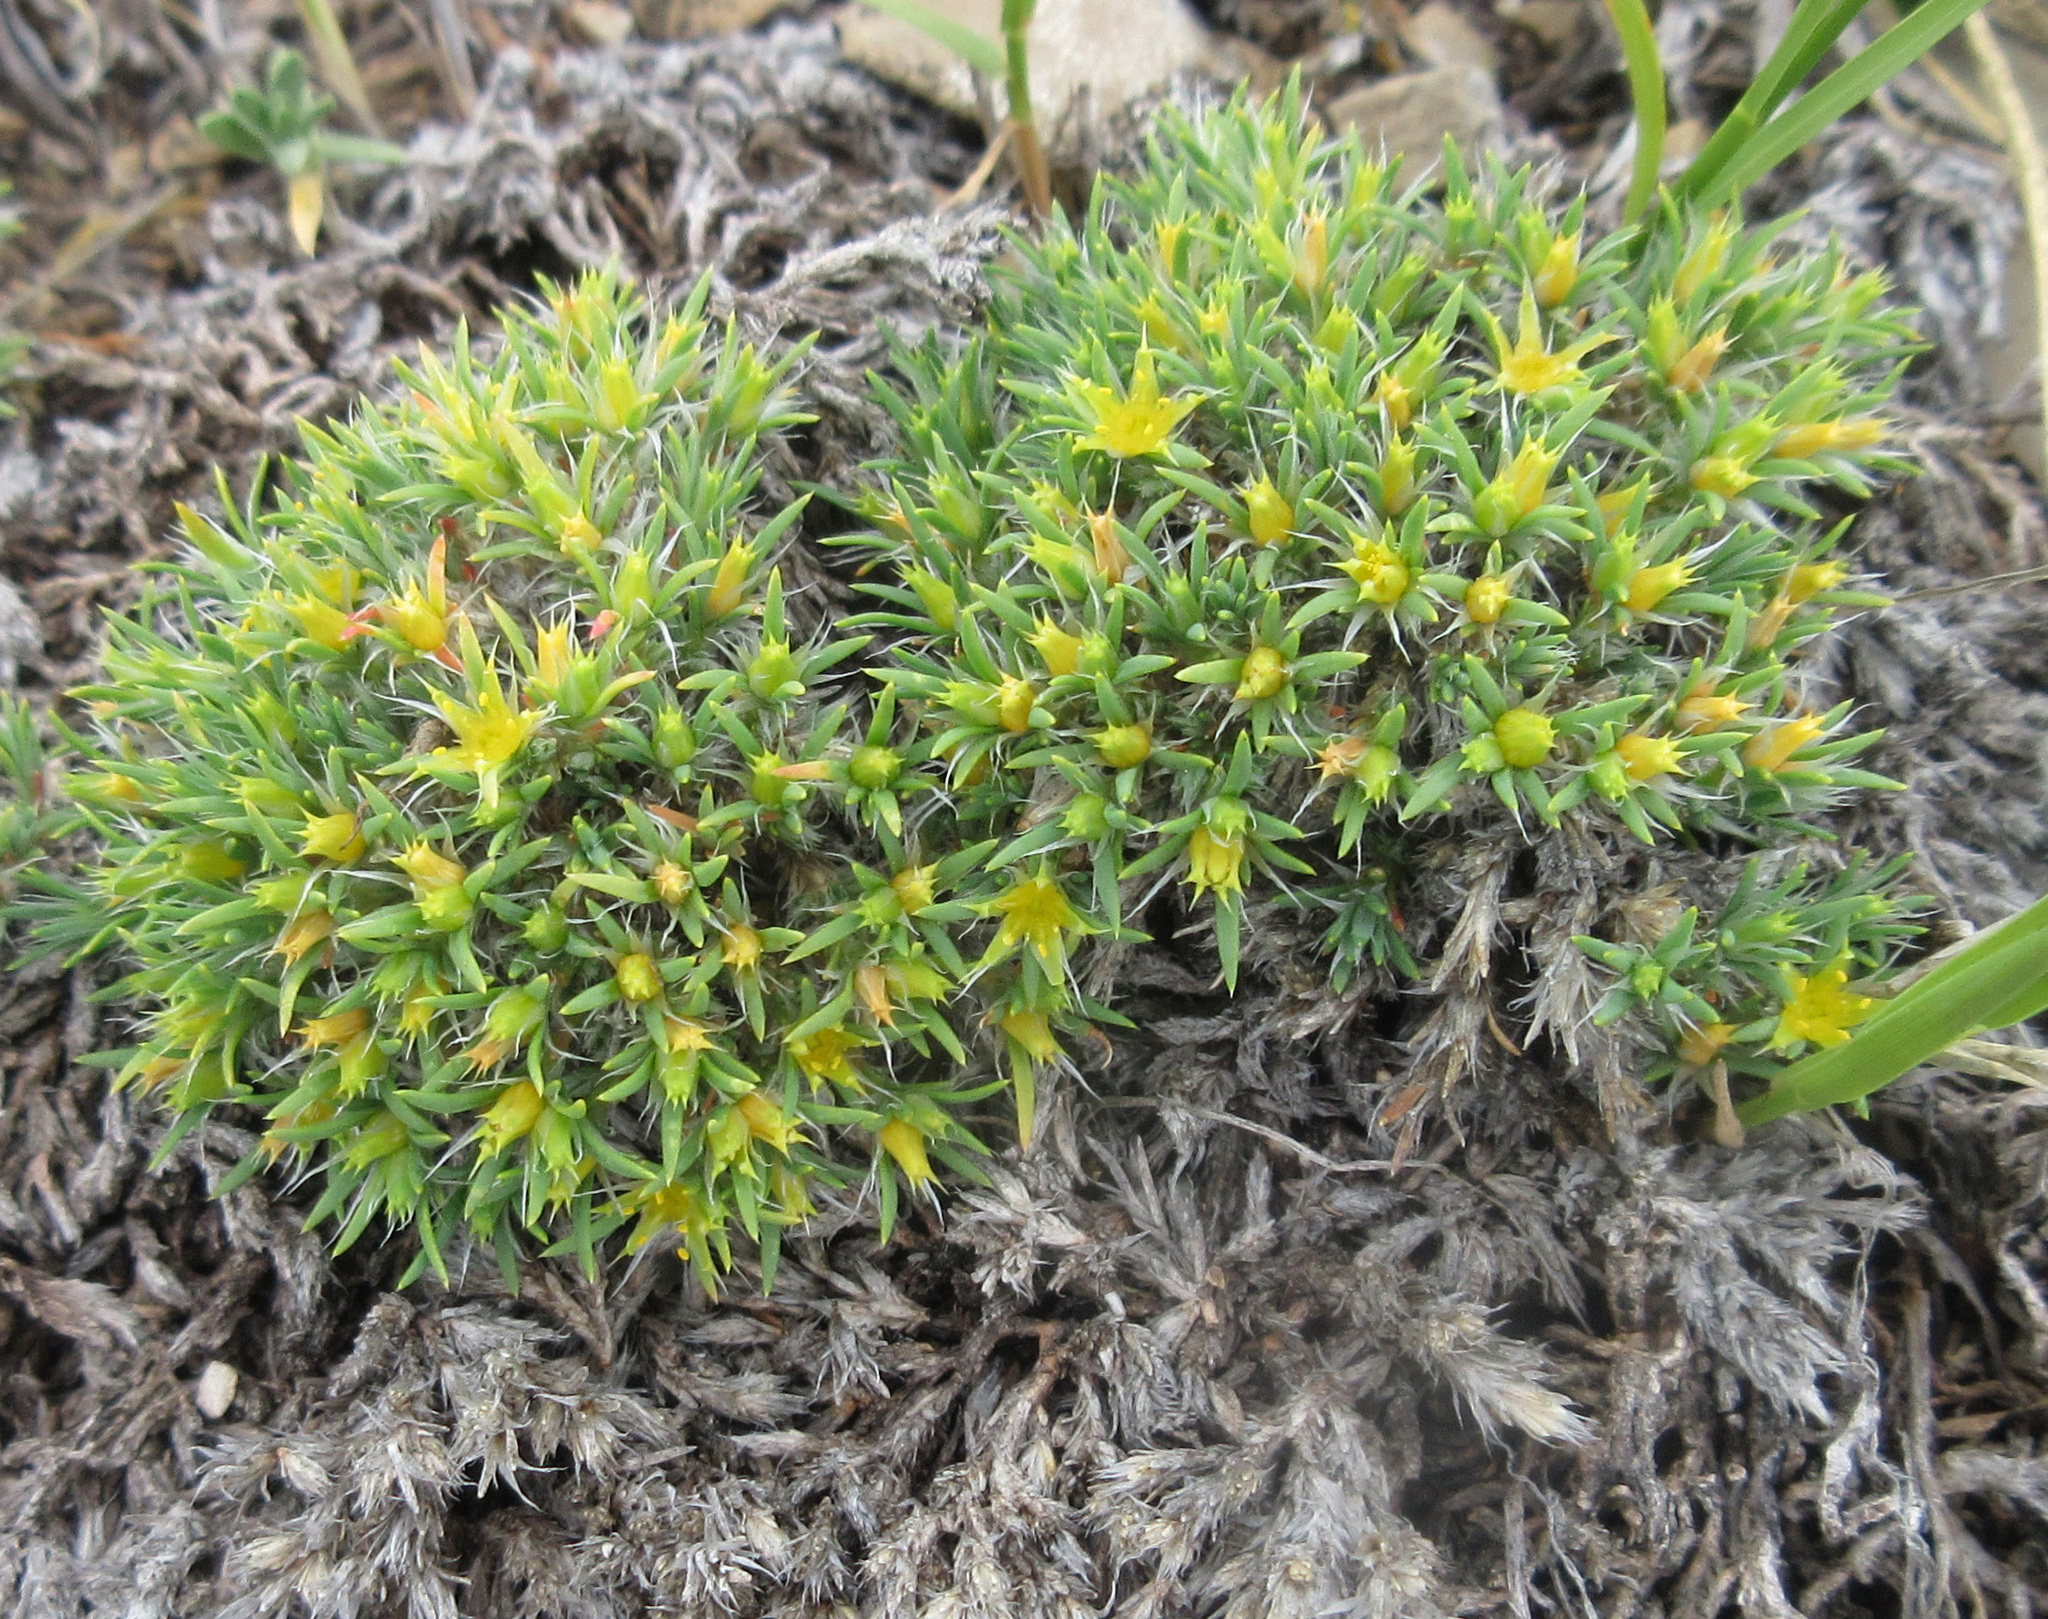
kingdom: Plantae
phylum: Tracheophyta
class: Magnoliopsida
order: Caryophyllales
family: Caryophyllaceae
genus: Paronychia
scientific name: Paronychia sessiliflora
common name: Creeping nailwort
